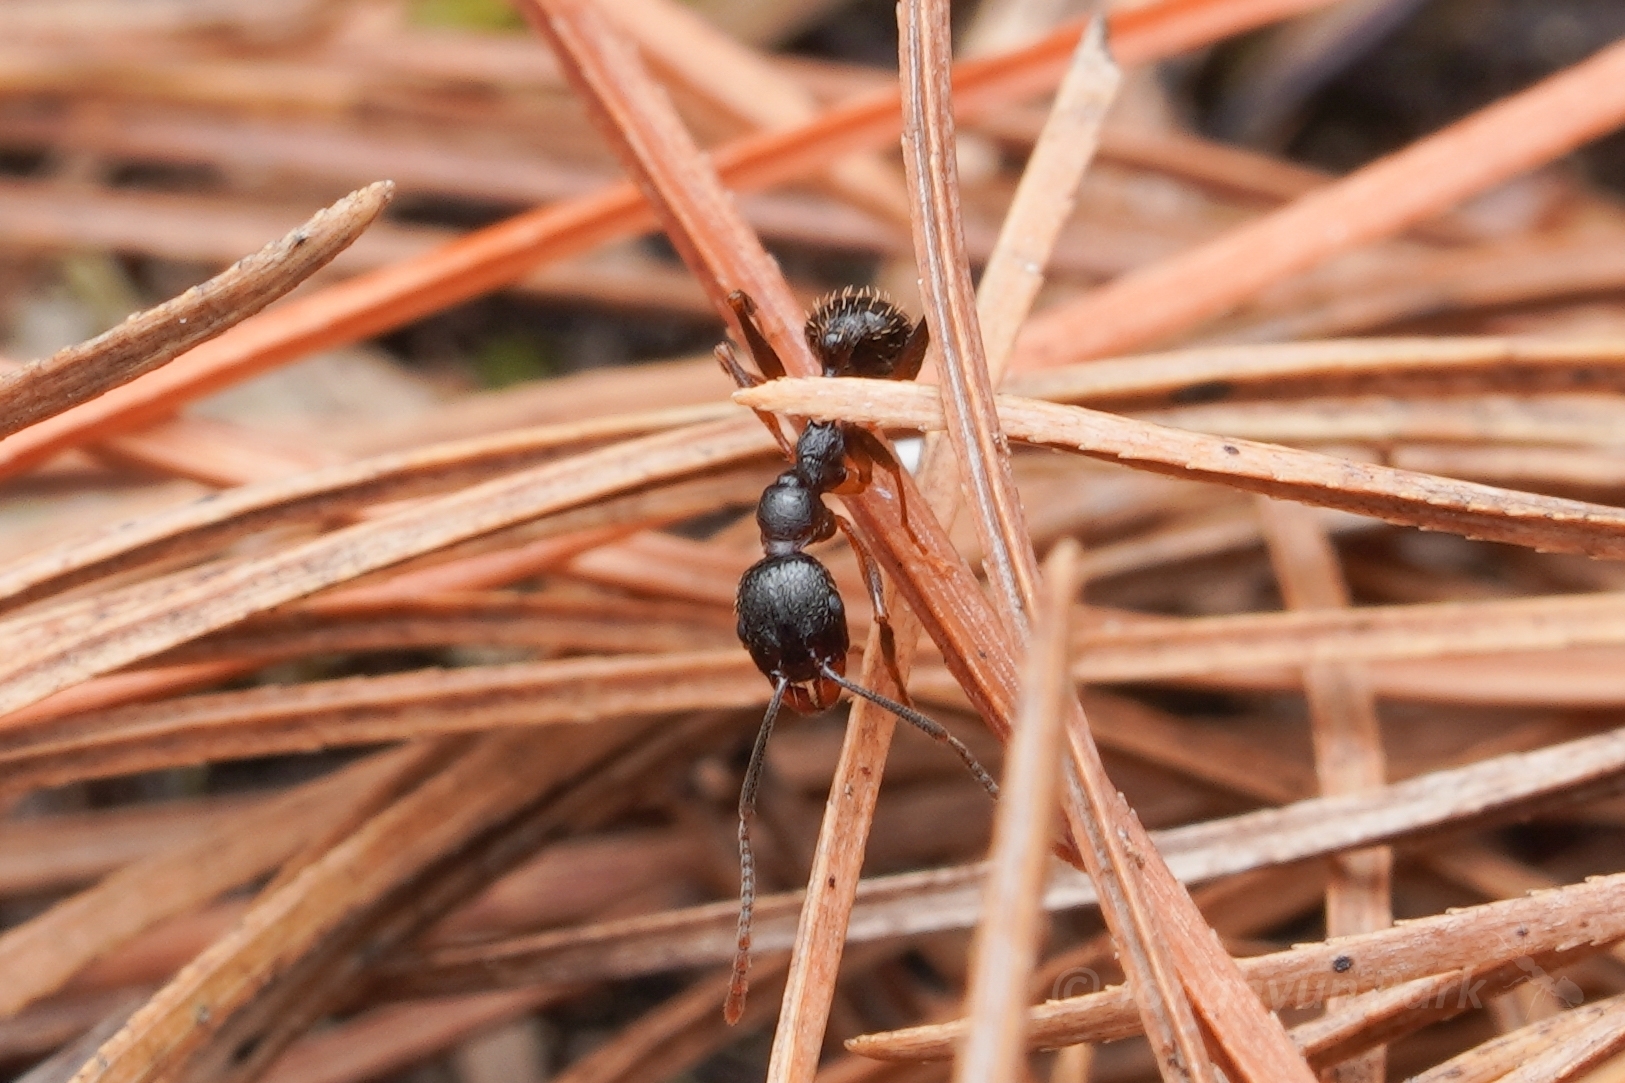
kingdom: Animalia
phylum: Arthropoda
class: Insecta
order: Hymenoptera
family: Formicidae
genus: Aphaenogaster
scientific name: Aphaenogaster rudis
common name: Winnow ant
